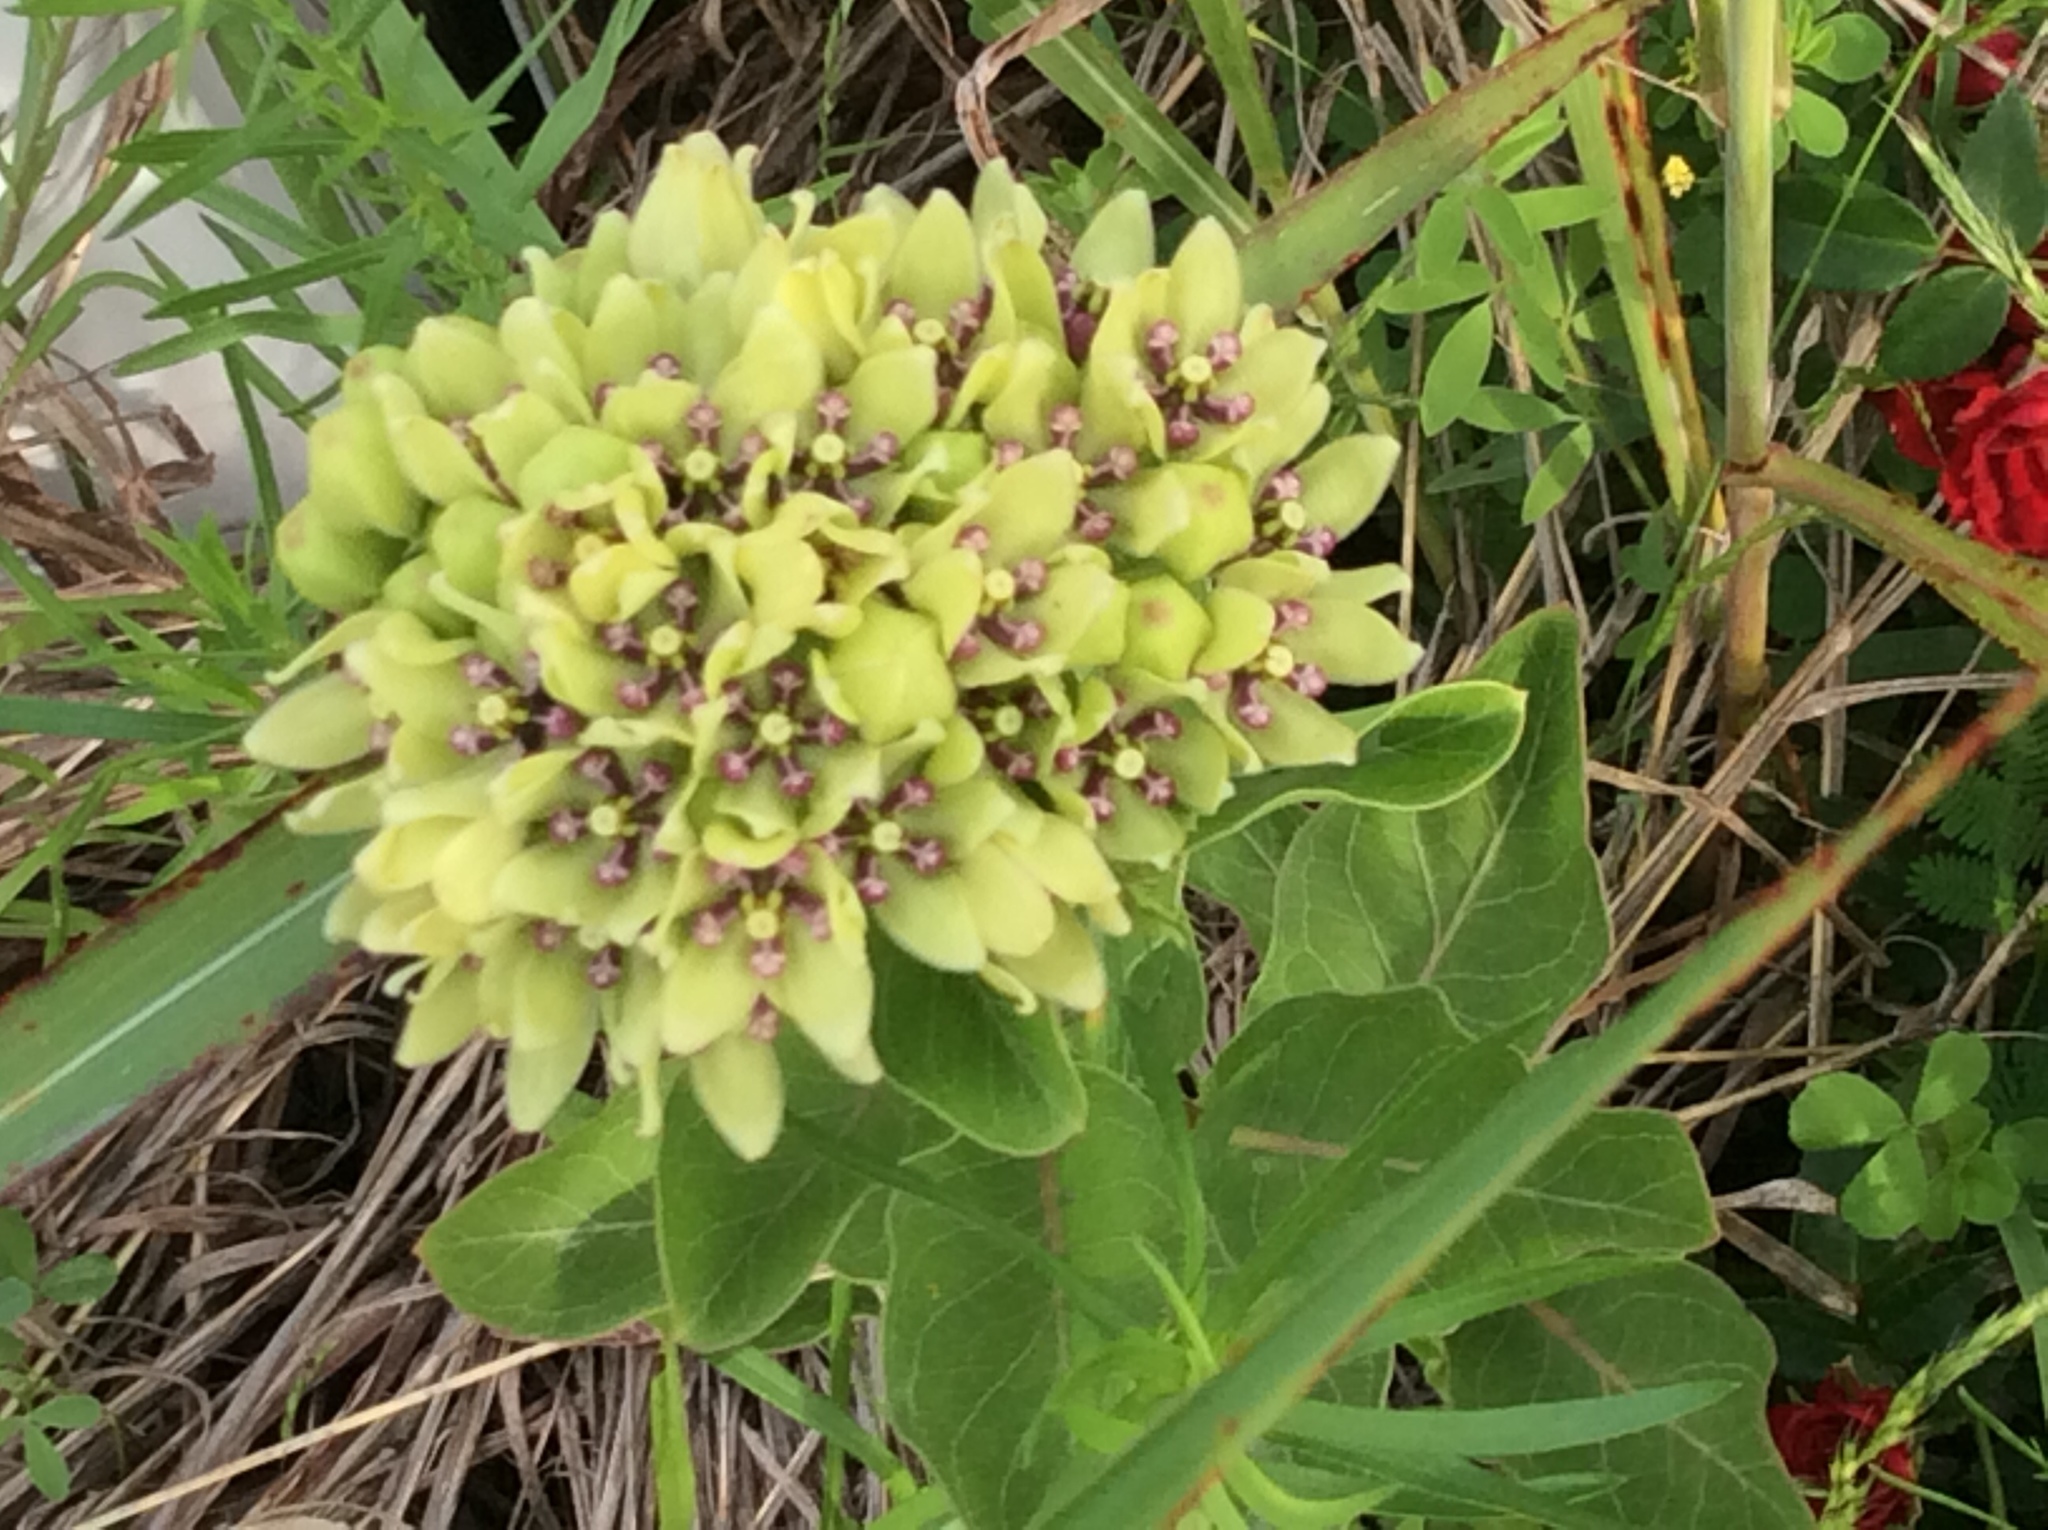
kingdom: Plantae
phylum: Tracheophyta
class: Magnoliopsida
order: Gentianales
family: Apocynaceae
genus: Asclepias
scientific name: Asclepias viridis
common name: Antelope-horns
